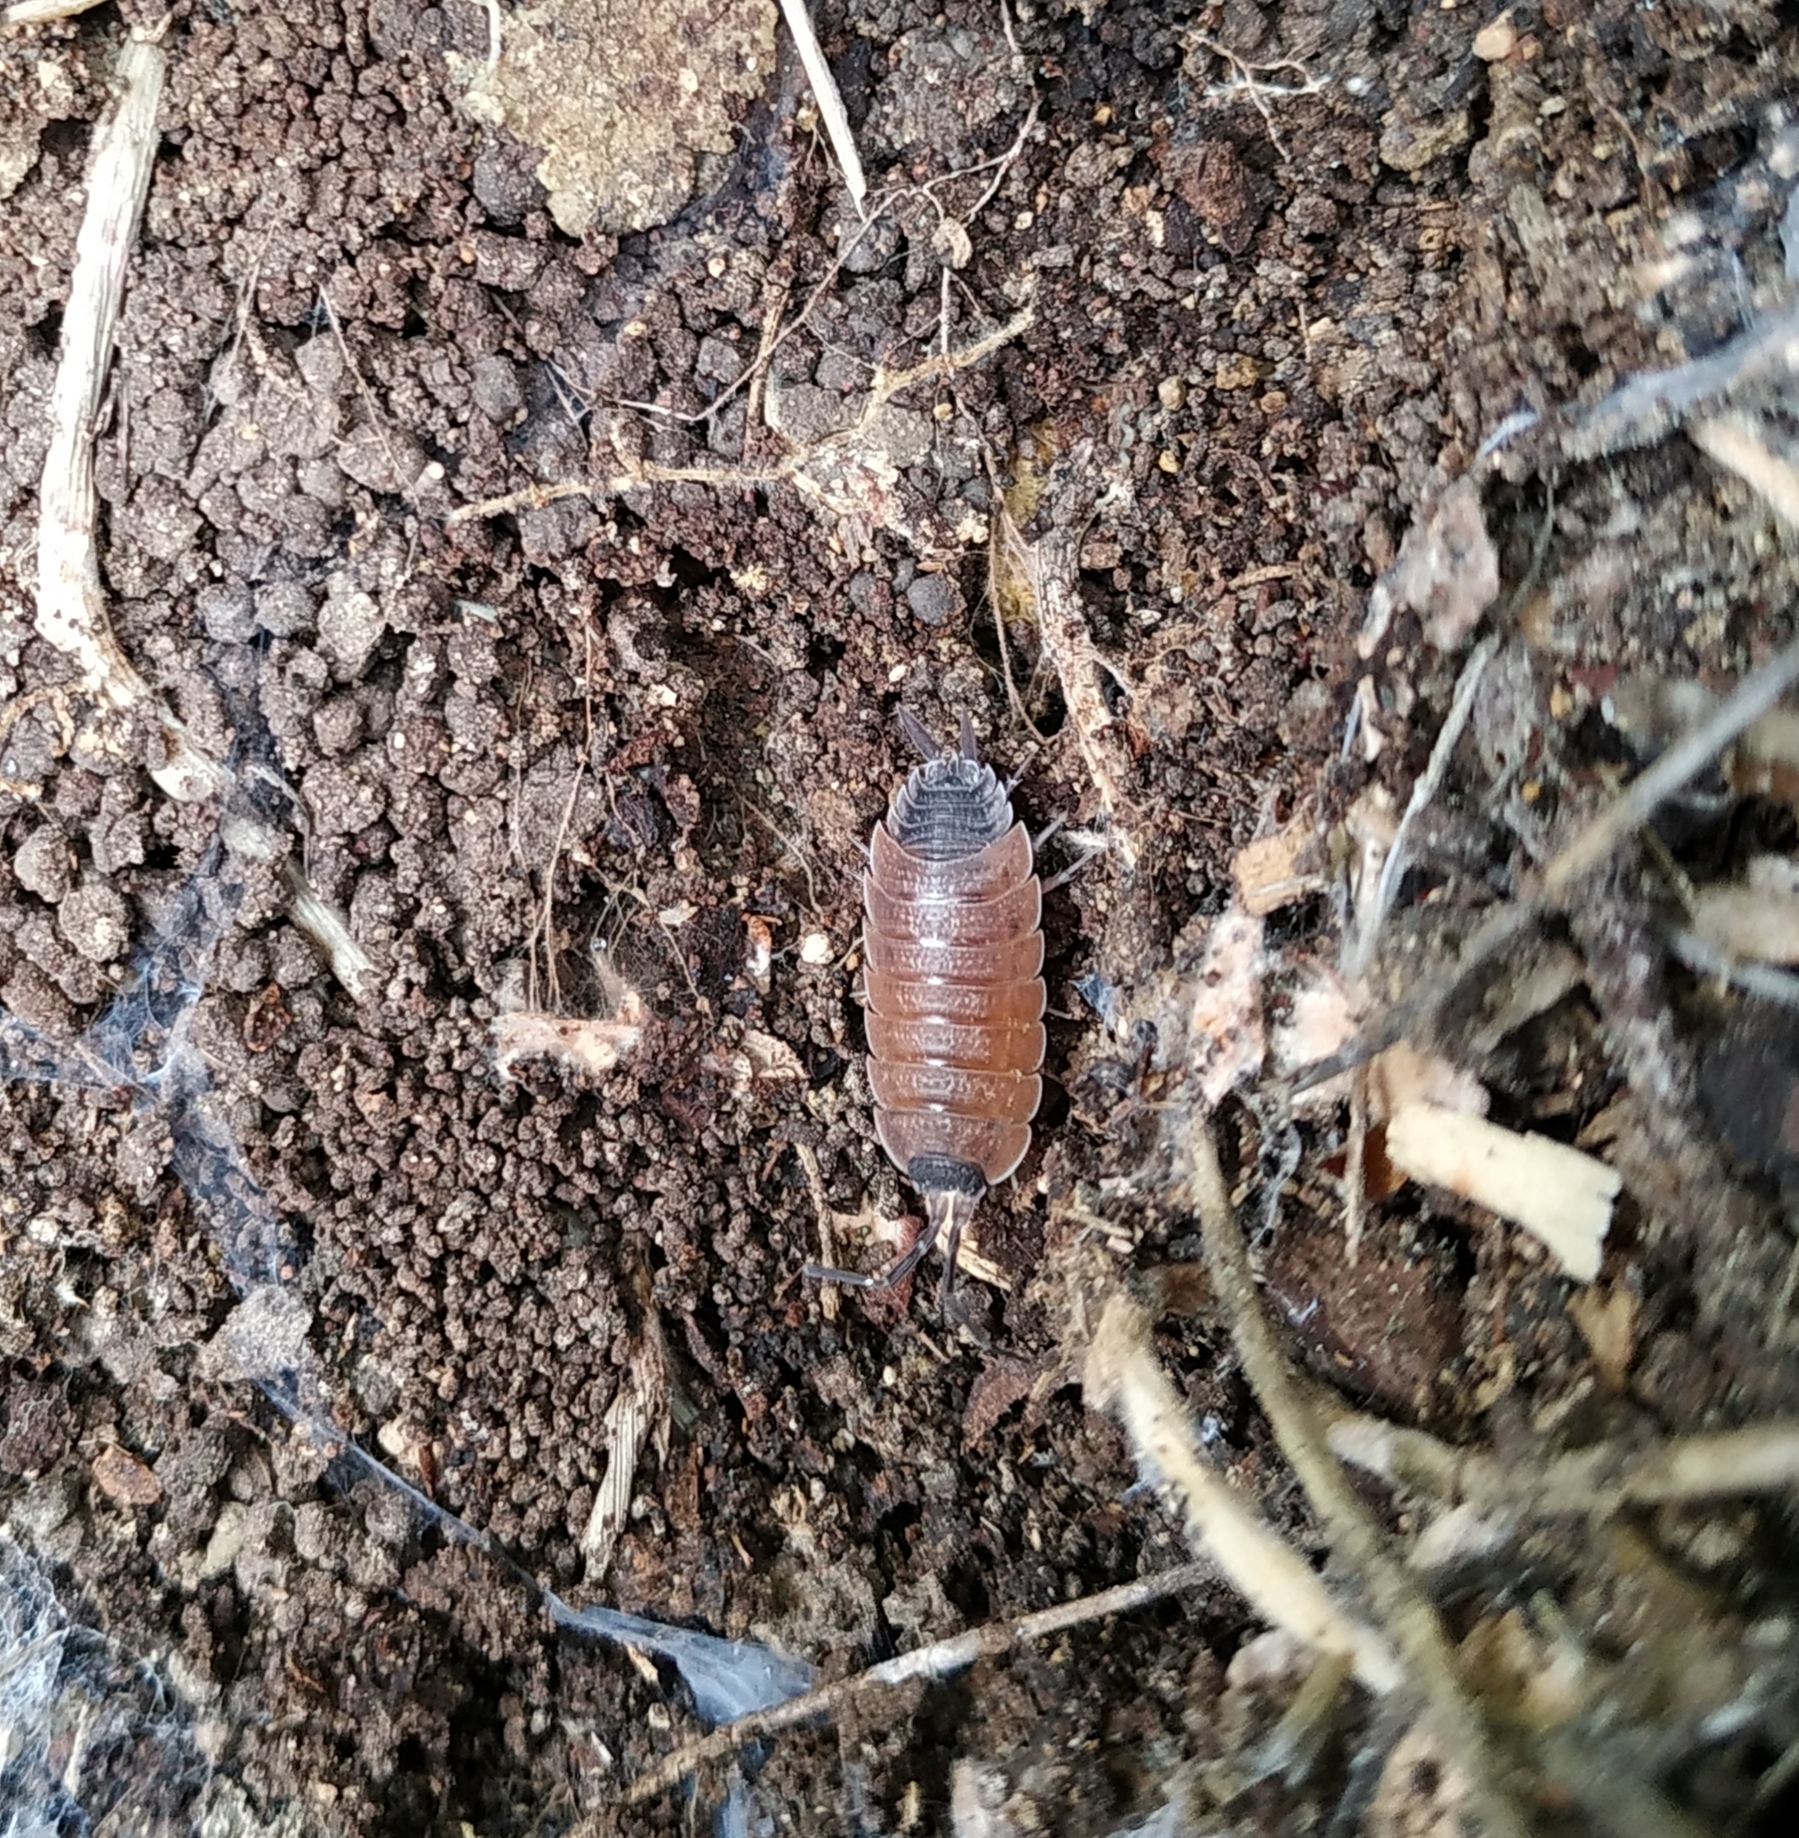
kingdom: Animalia
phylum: Arthropoda
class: Malacostraca
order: Isopoda
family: Porcellionidae
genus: Porcellio
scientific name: Porcellio silvestrii
